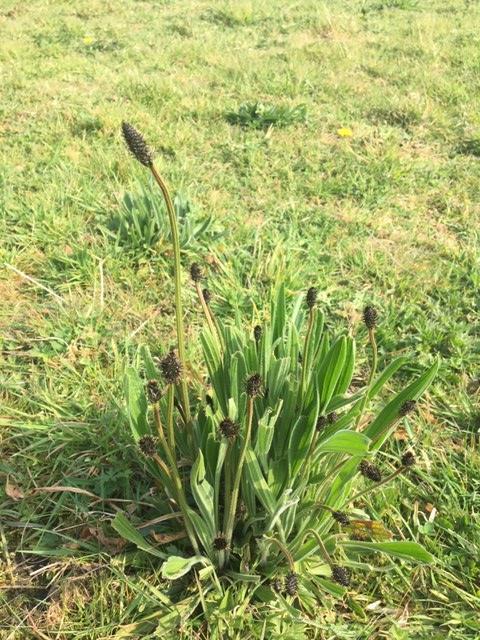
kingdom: Plantae
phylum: Tracheophyta
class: Magnoliopsida
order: Lamiales
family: Plantaginaceae
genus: Plantago
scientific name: Plantago lanceolata
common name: Ribwort plantain
